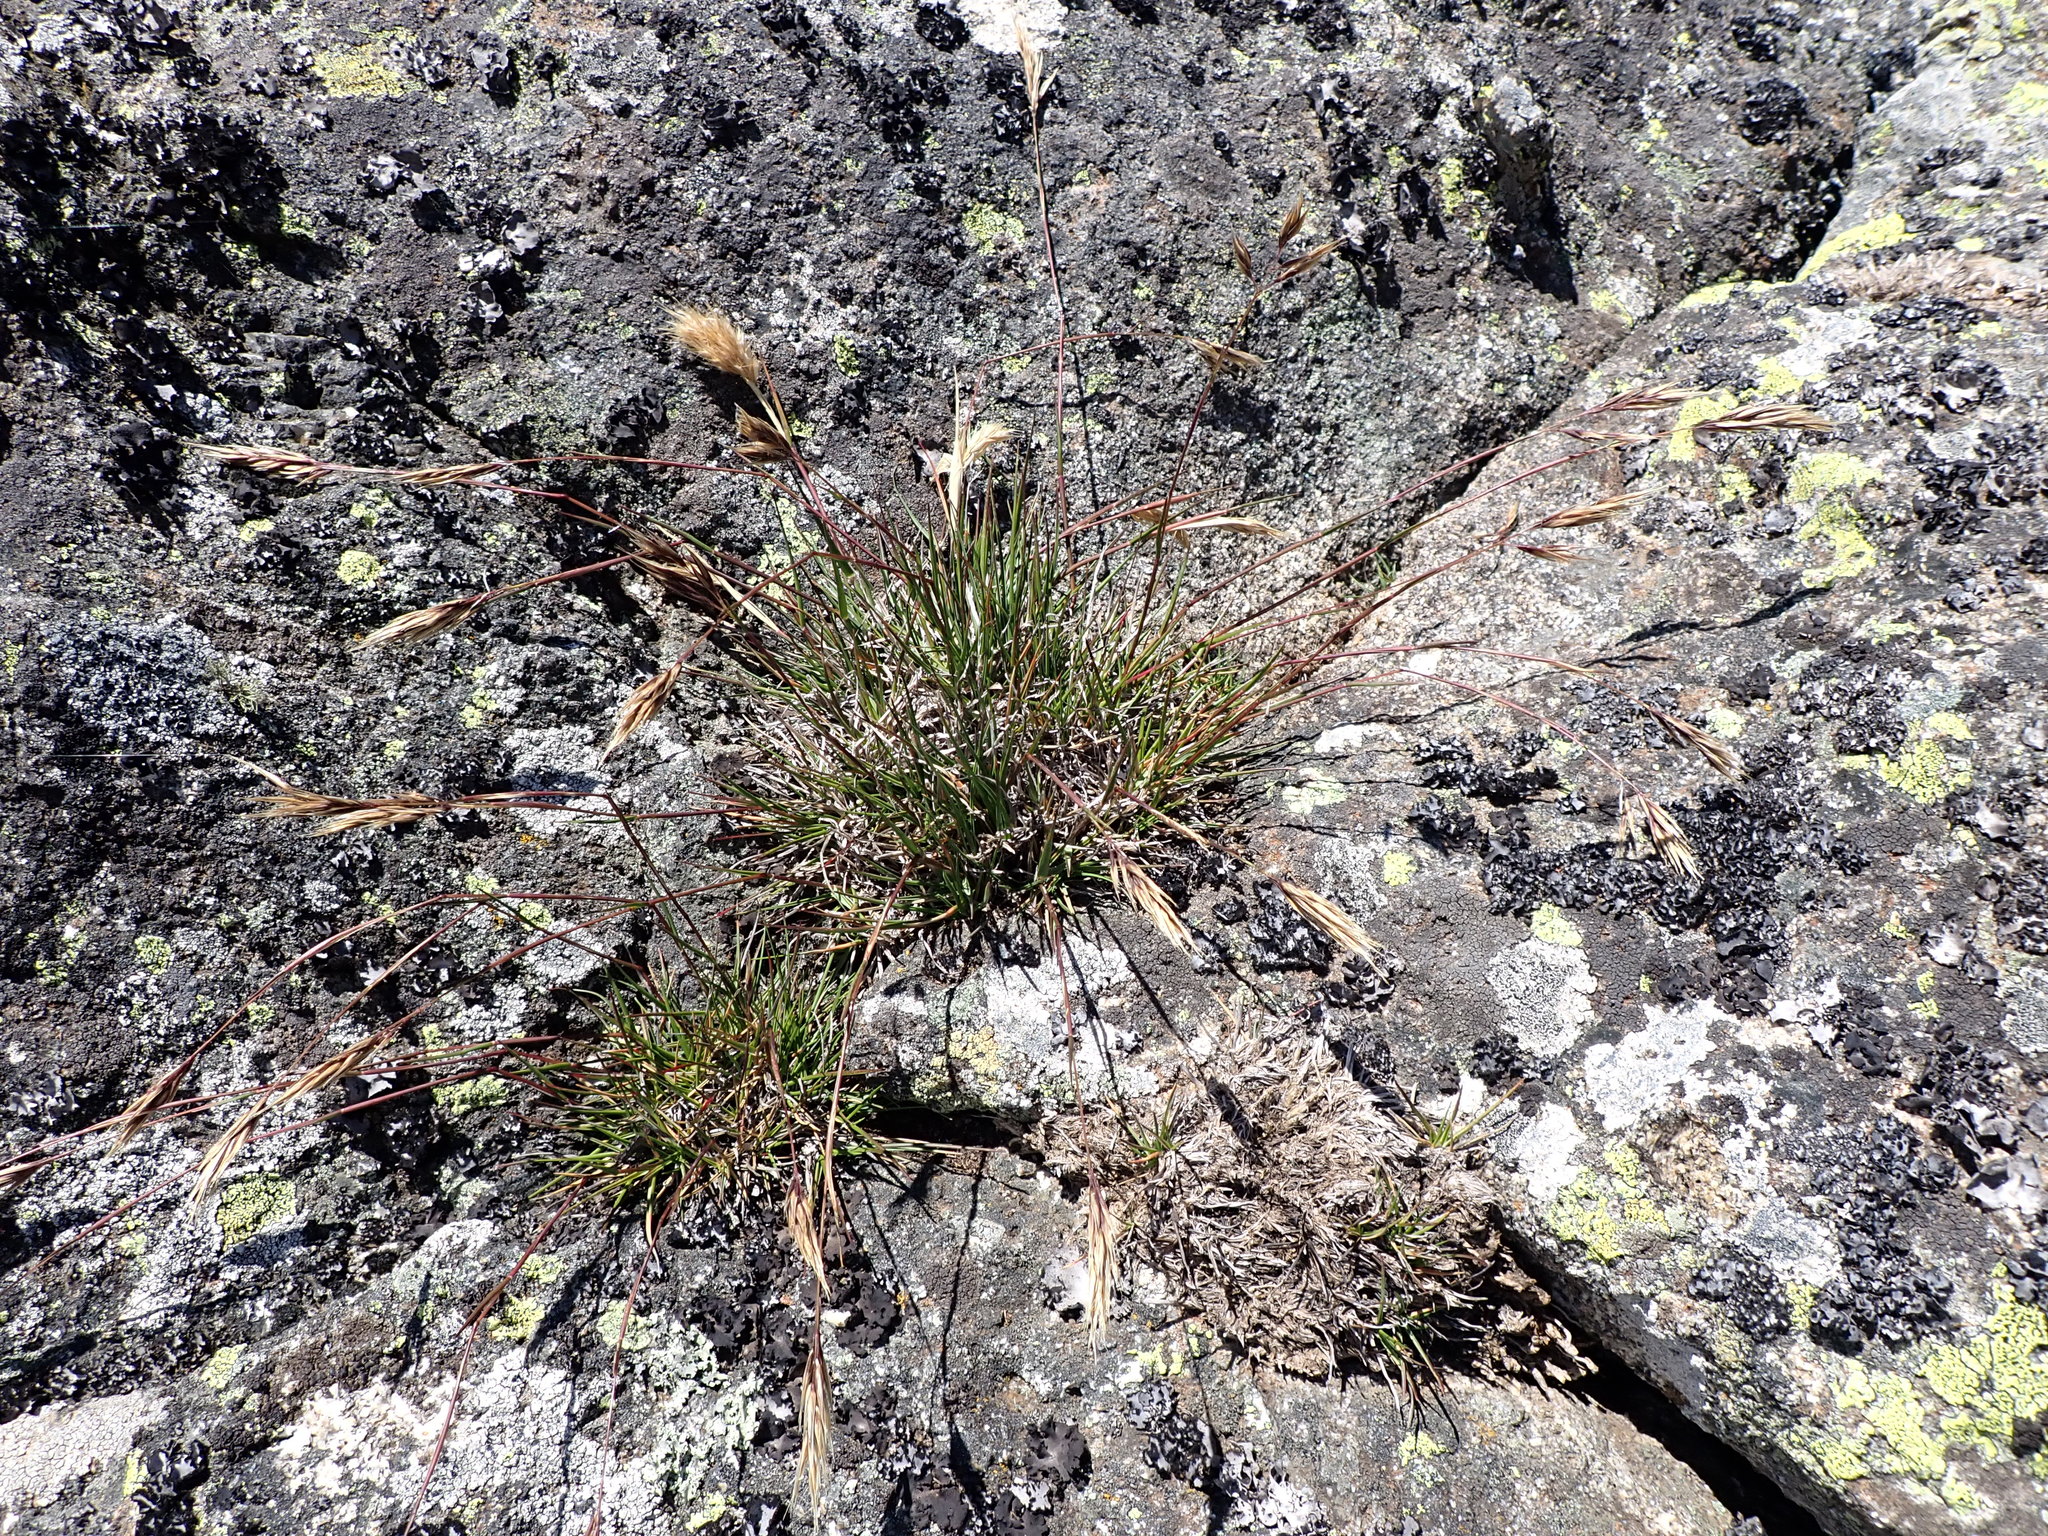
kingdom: Plantae
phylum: Tracheophyta
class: Liliopsida
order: Poales
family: Poaceae
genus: Rytidosperma
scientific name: Rytidosperma alpicola
